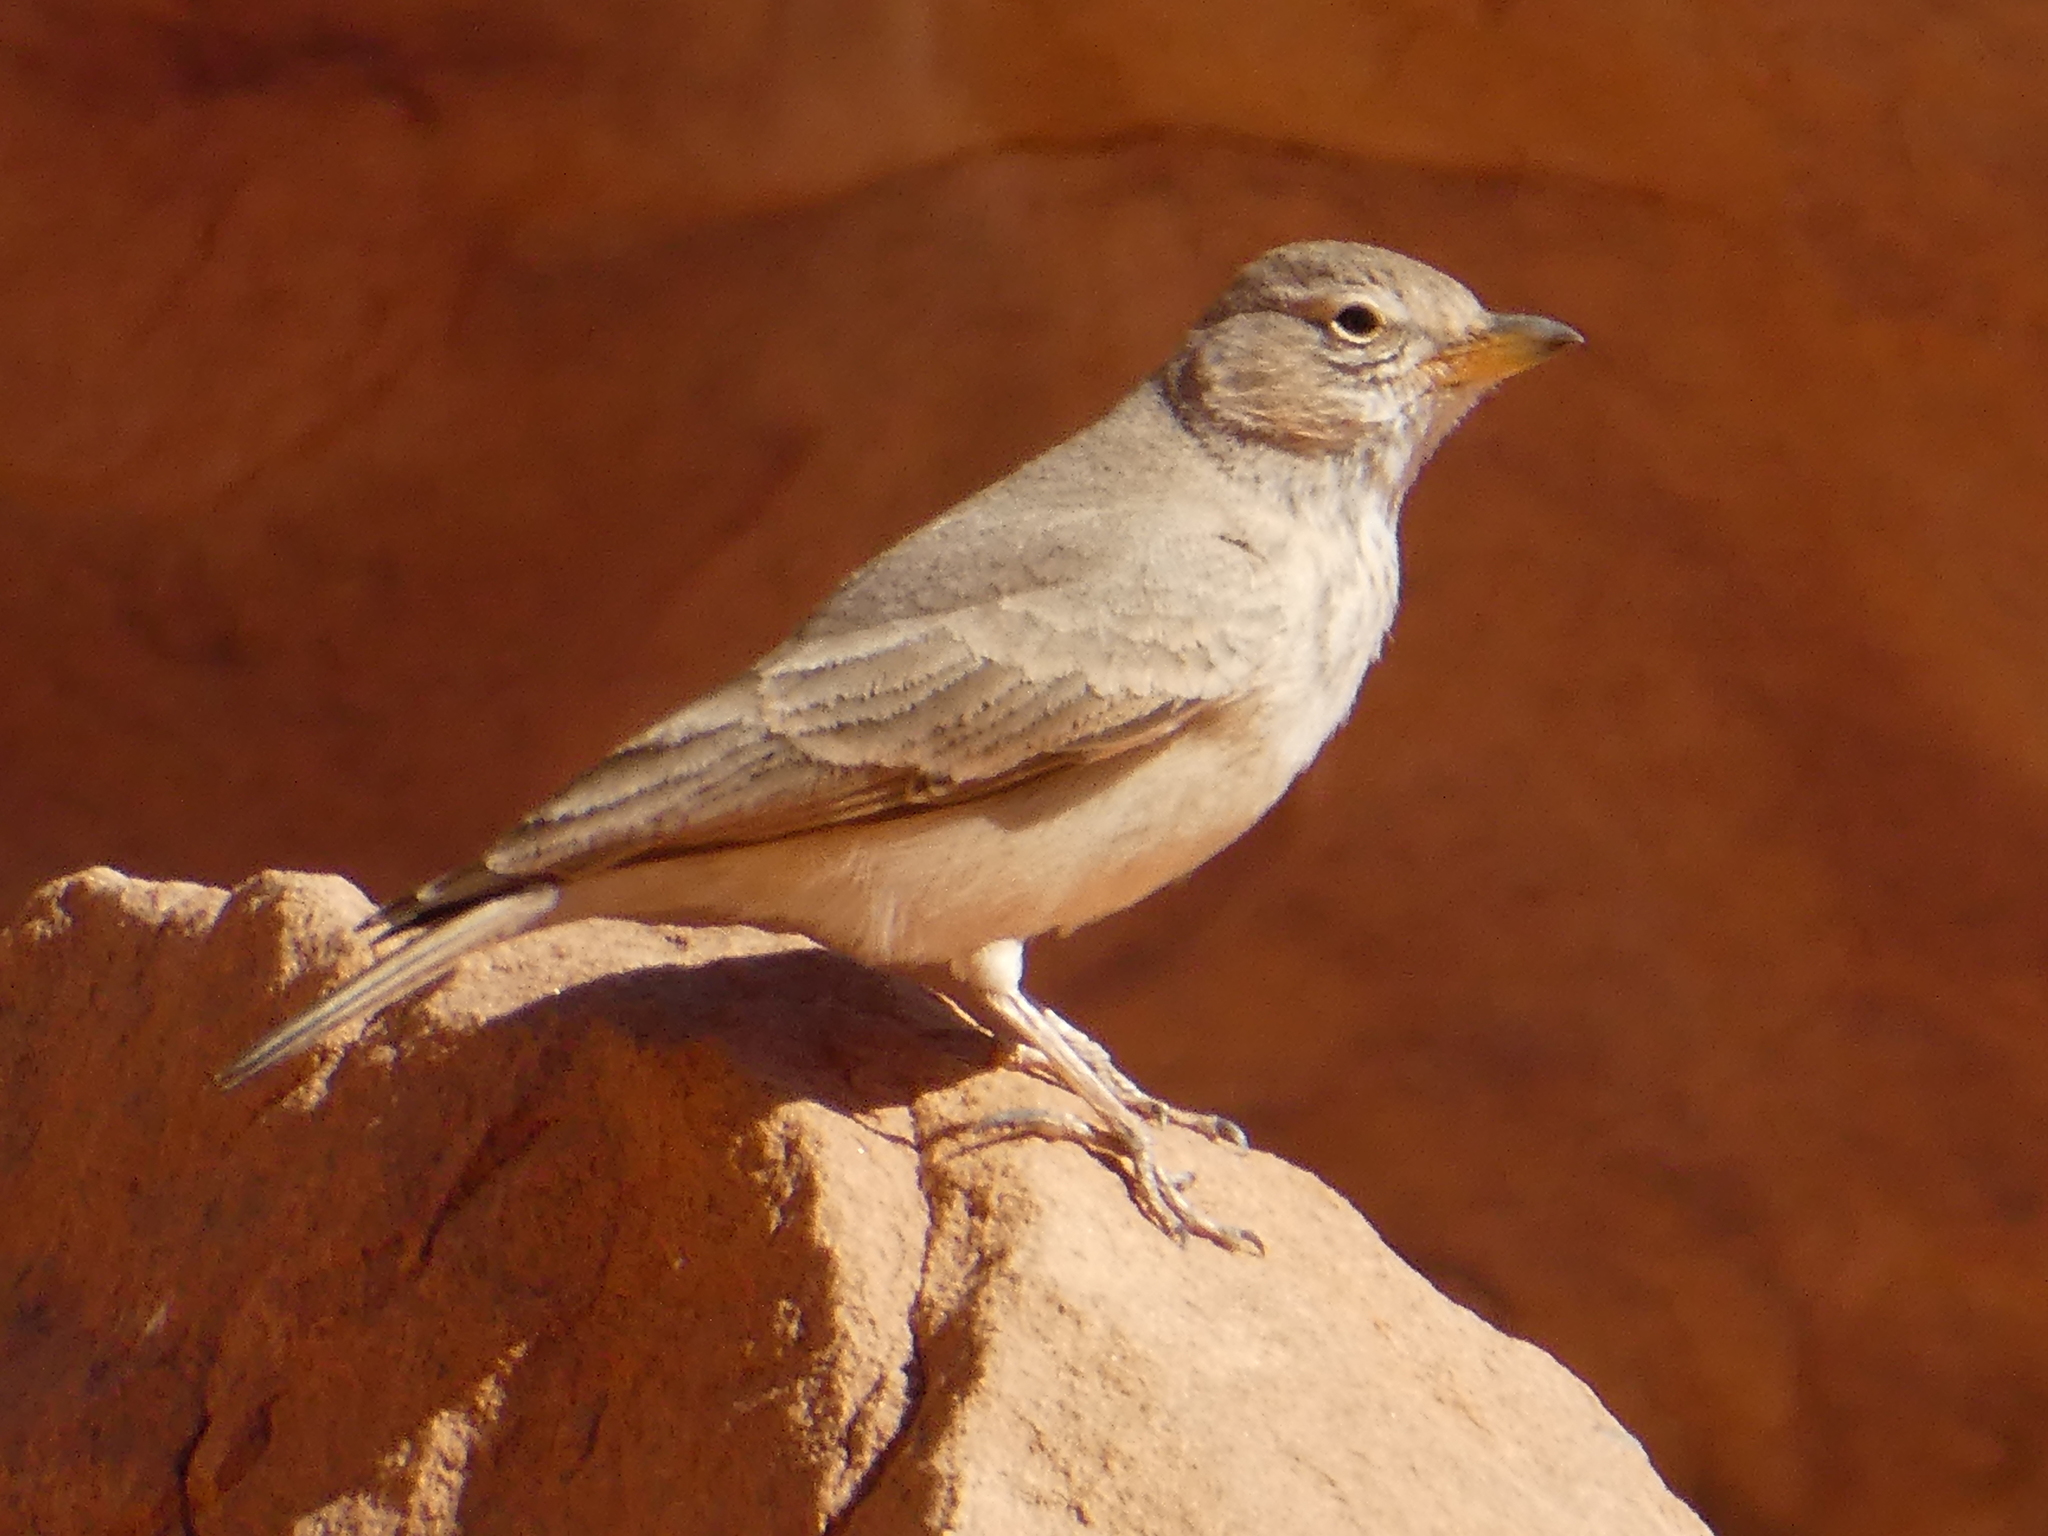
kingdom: Animalia
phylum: Chordata
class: Aves
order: Passeriformes
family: Alaudidae
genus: Ammomanes
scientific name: Ammomanes deserti
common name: Desert lark
